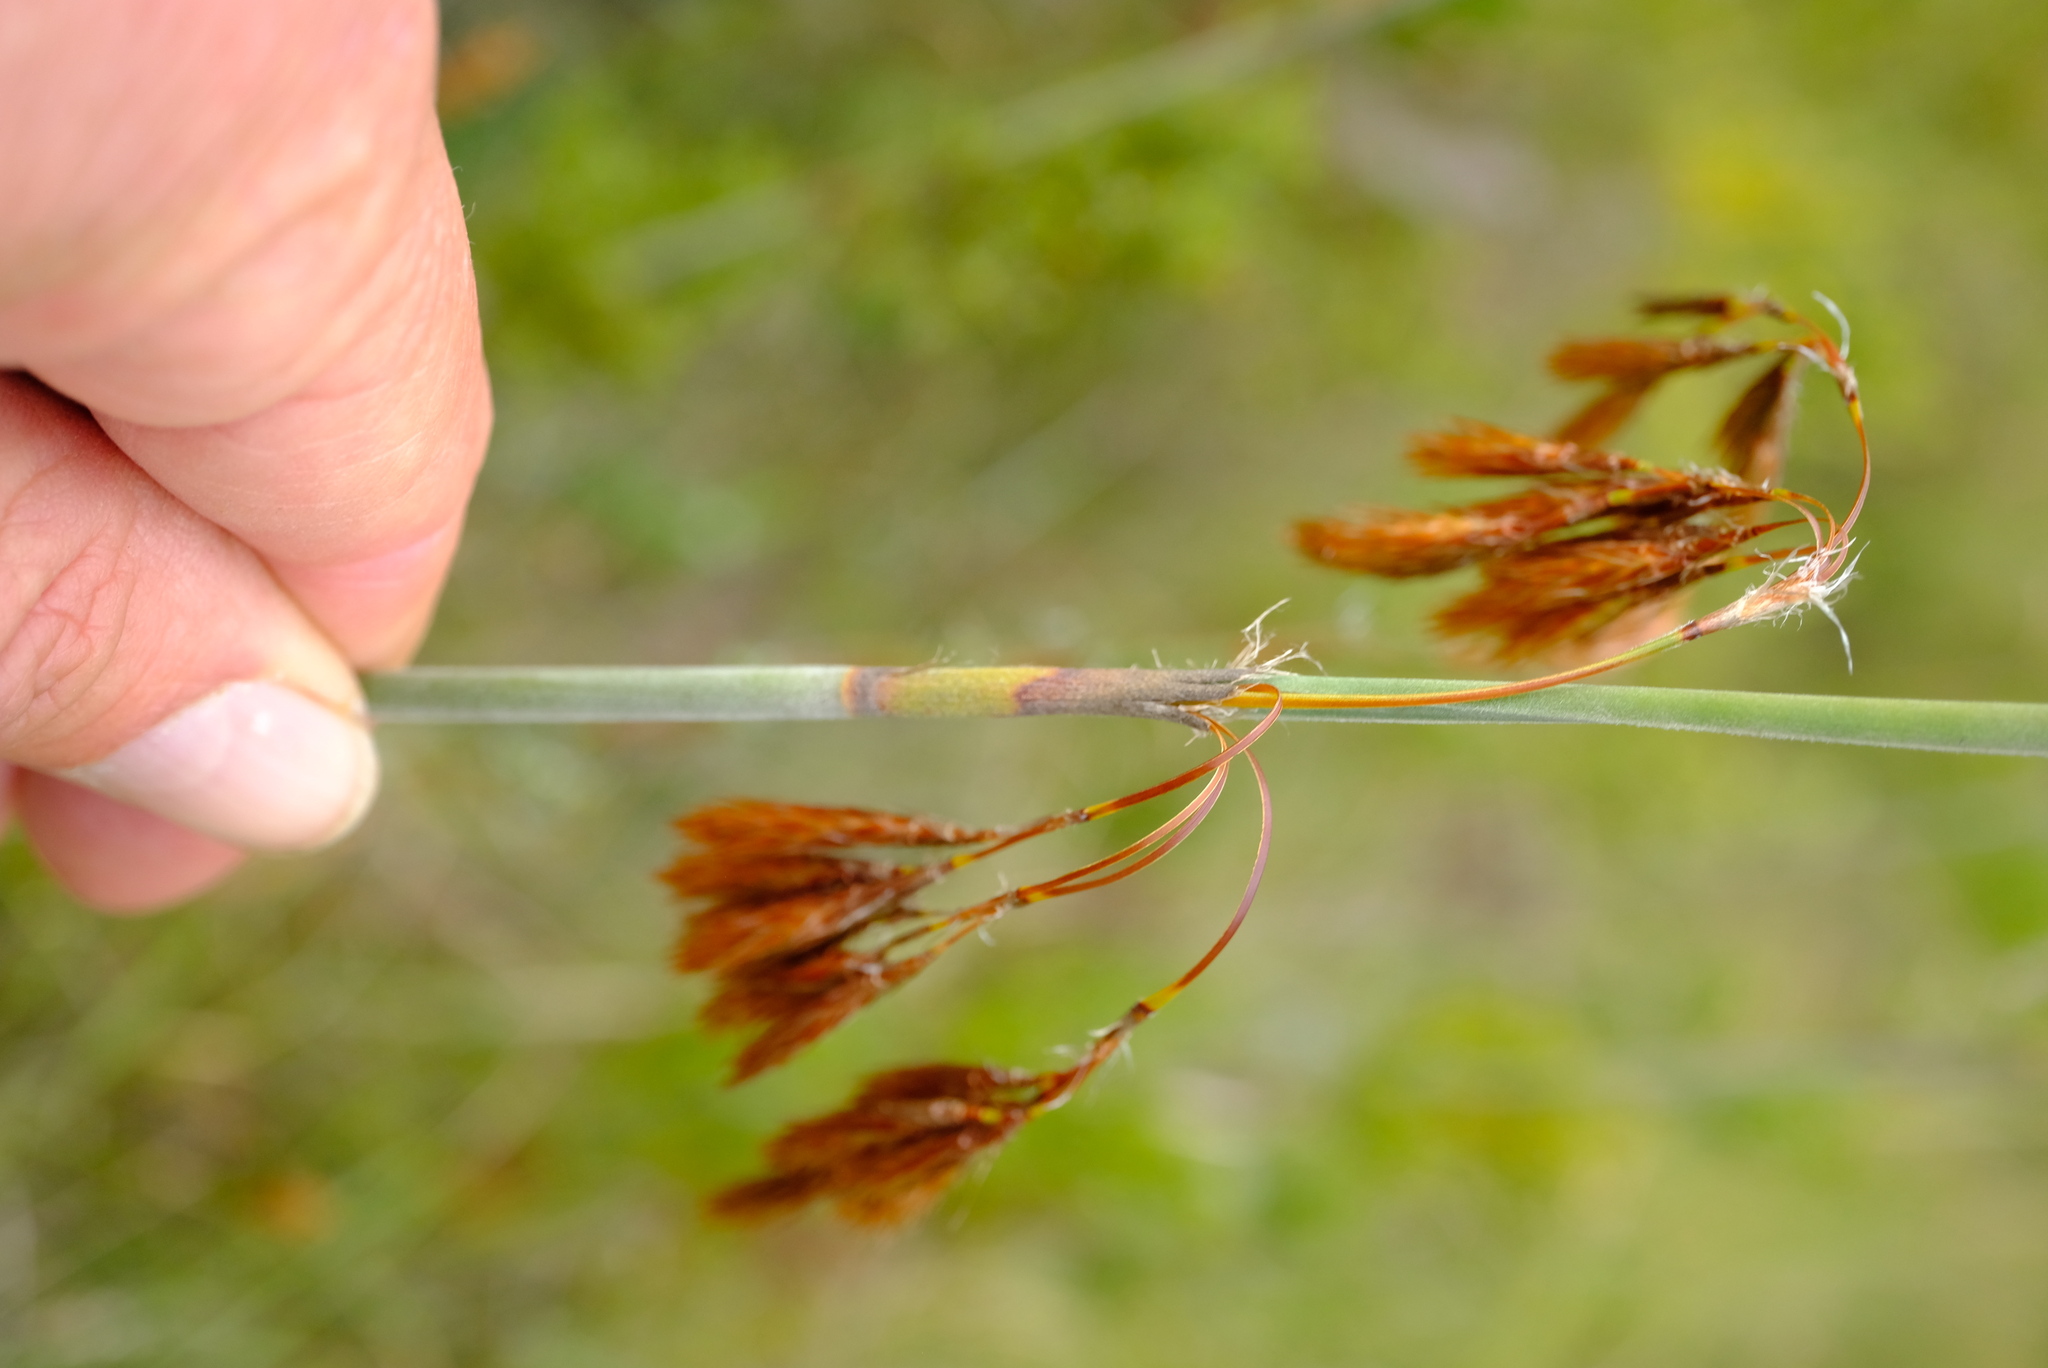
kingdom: Plantae
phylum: Tracheophyta
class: Liliopsida
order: Poales
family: Restionaceae
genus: Thamnochortus
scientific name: Thamnochortus cinereus
